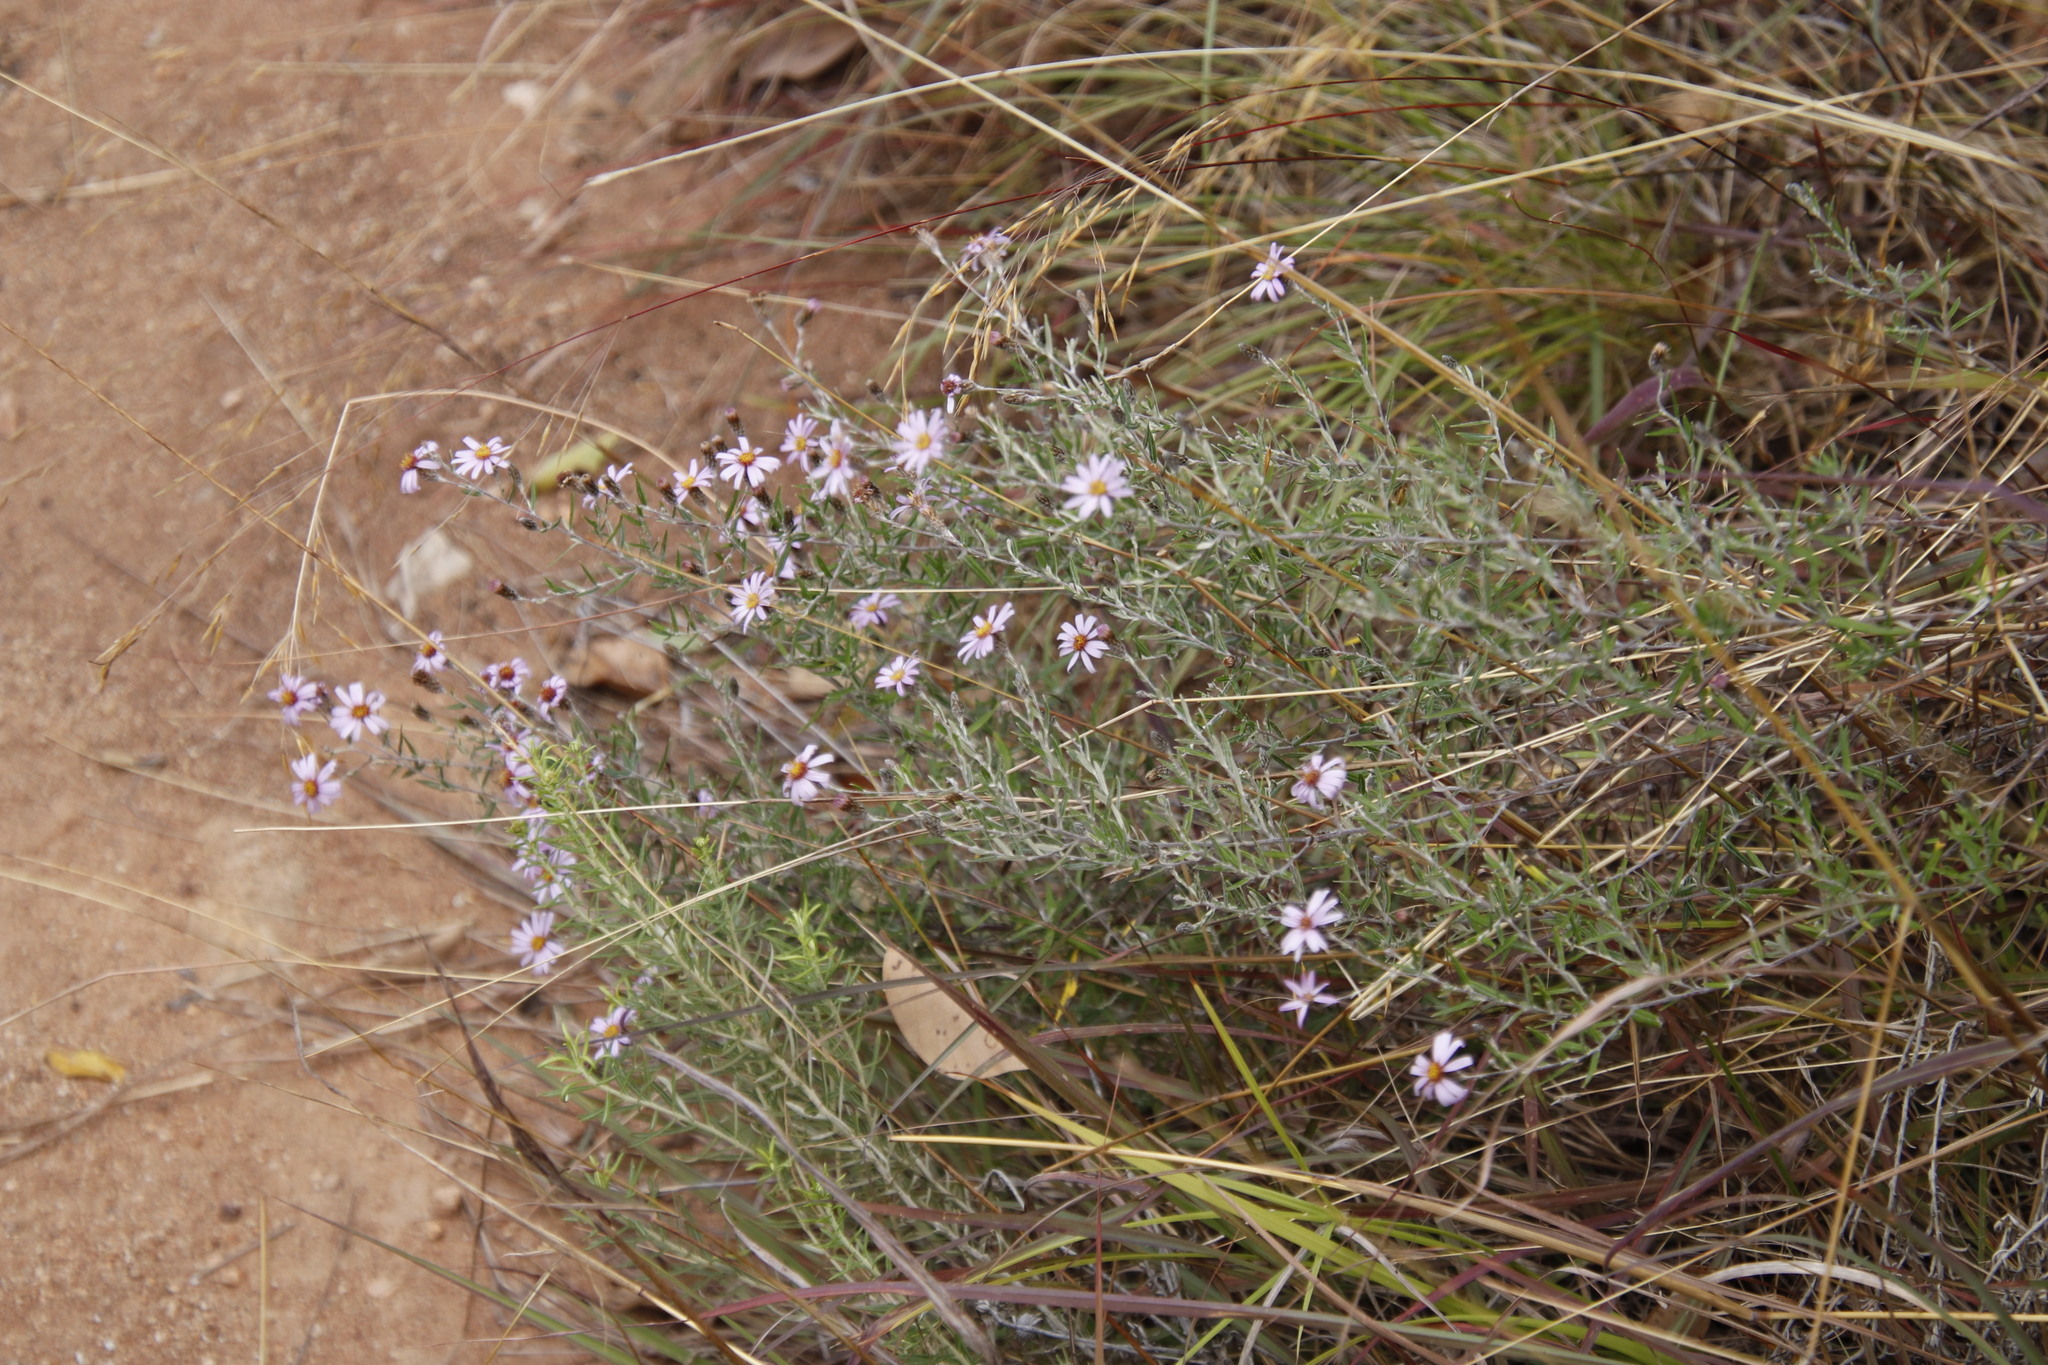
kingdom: Plantae
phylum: Tracheophyta
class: Magnoliopsida
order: Asterales
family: Asteraceae
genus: Athrixia
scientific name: Athrixia elata
